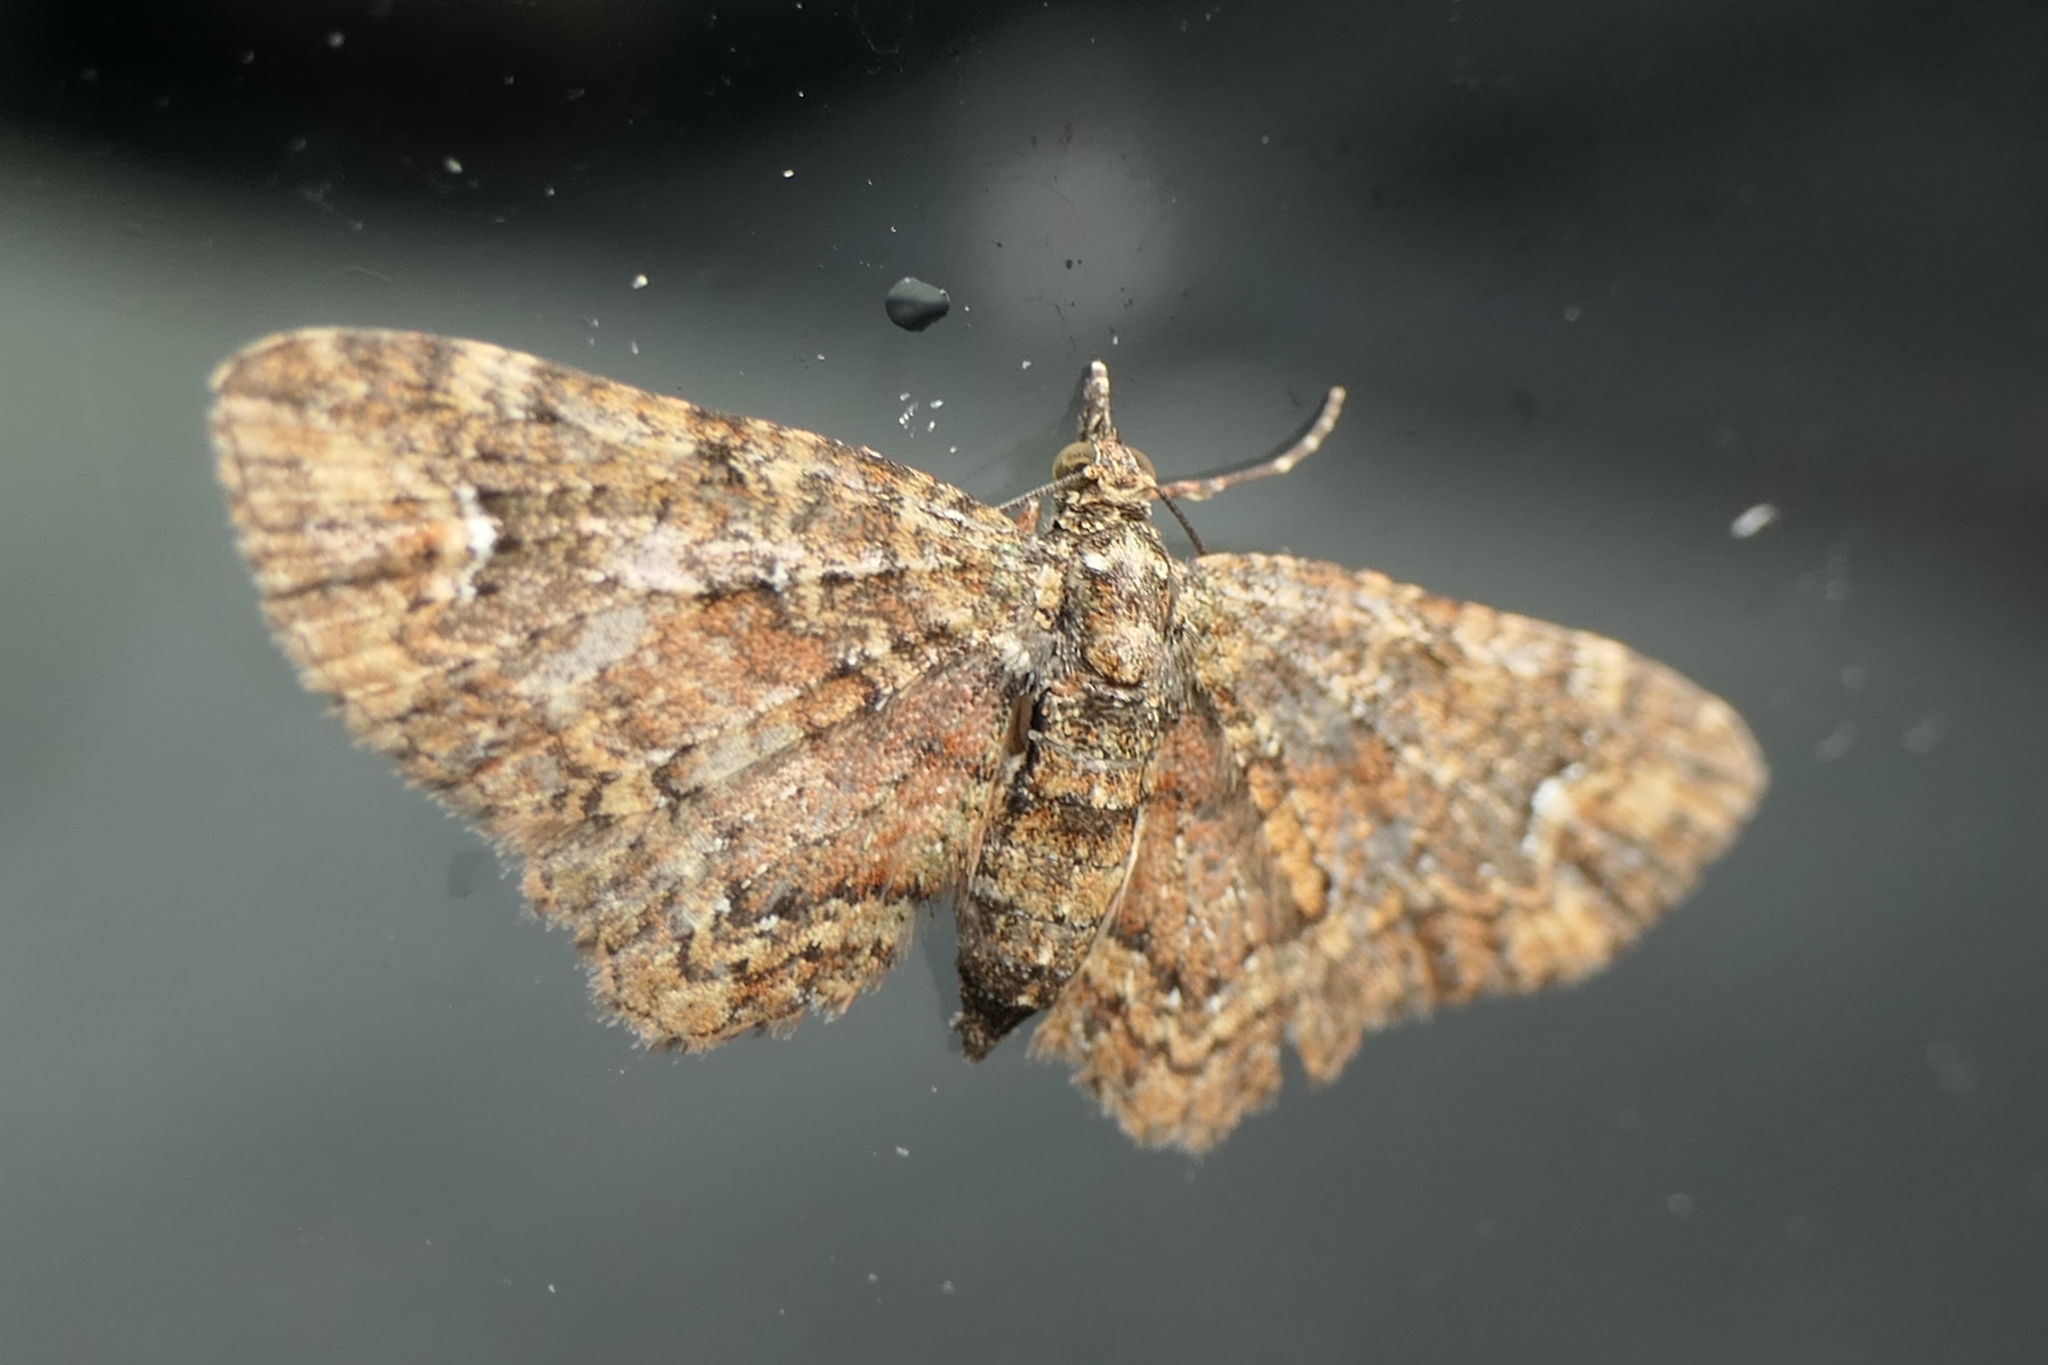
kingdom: Animalia
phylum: Arthropoda
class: Insecta
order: Lepidoptera
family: Geometridae
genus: Pasiphilodes
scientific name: Pasiphilodes testulata
